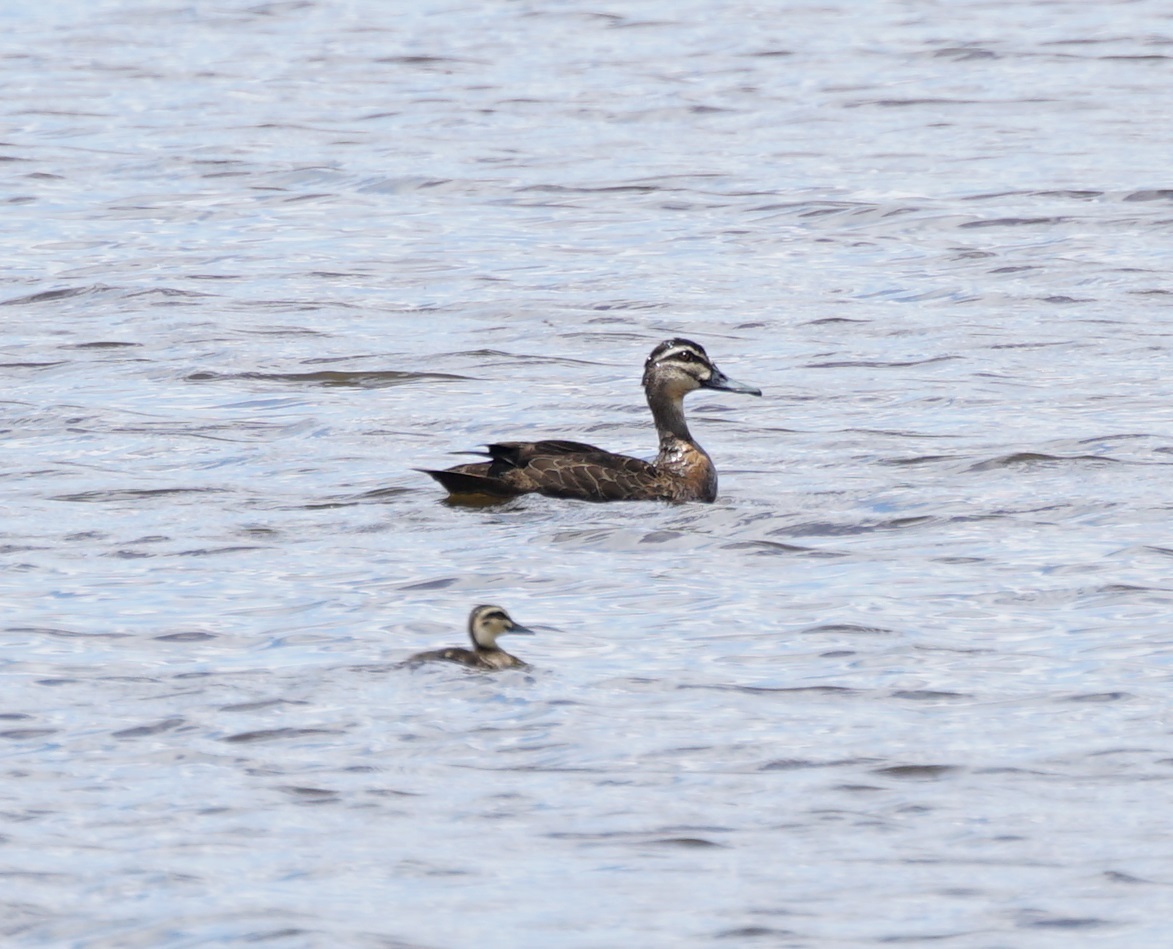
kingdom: Animalia
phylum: Chordata
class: Aves
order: Anseriformes
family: Anatidae
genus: Anas
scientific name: Anas superciliosa
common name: Pacific black duck
